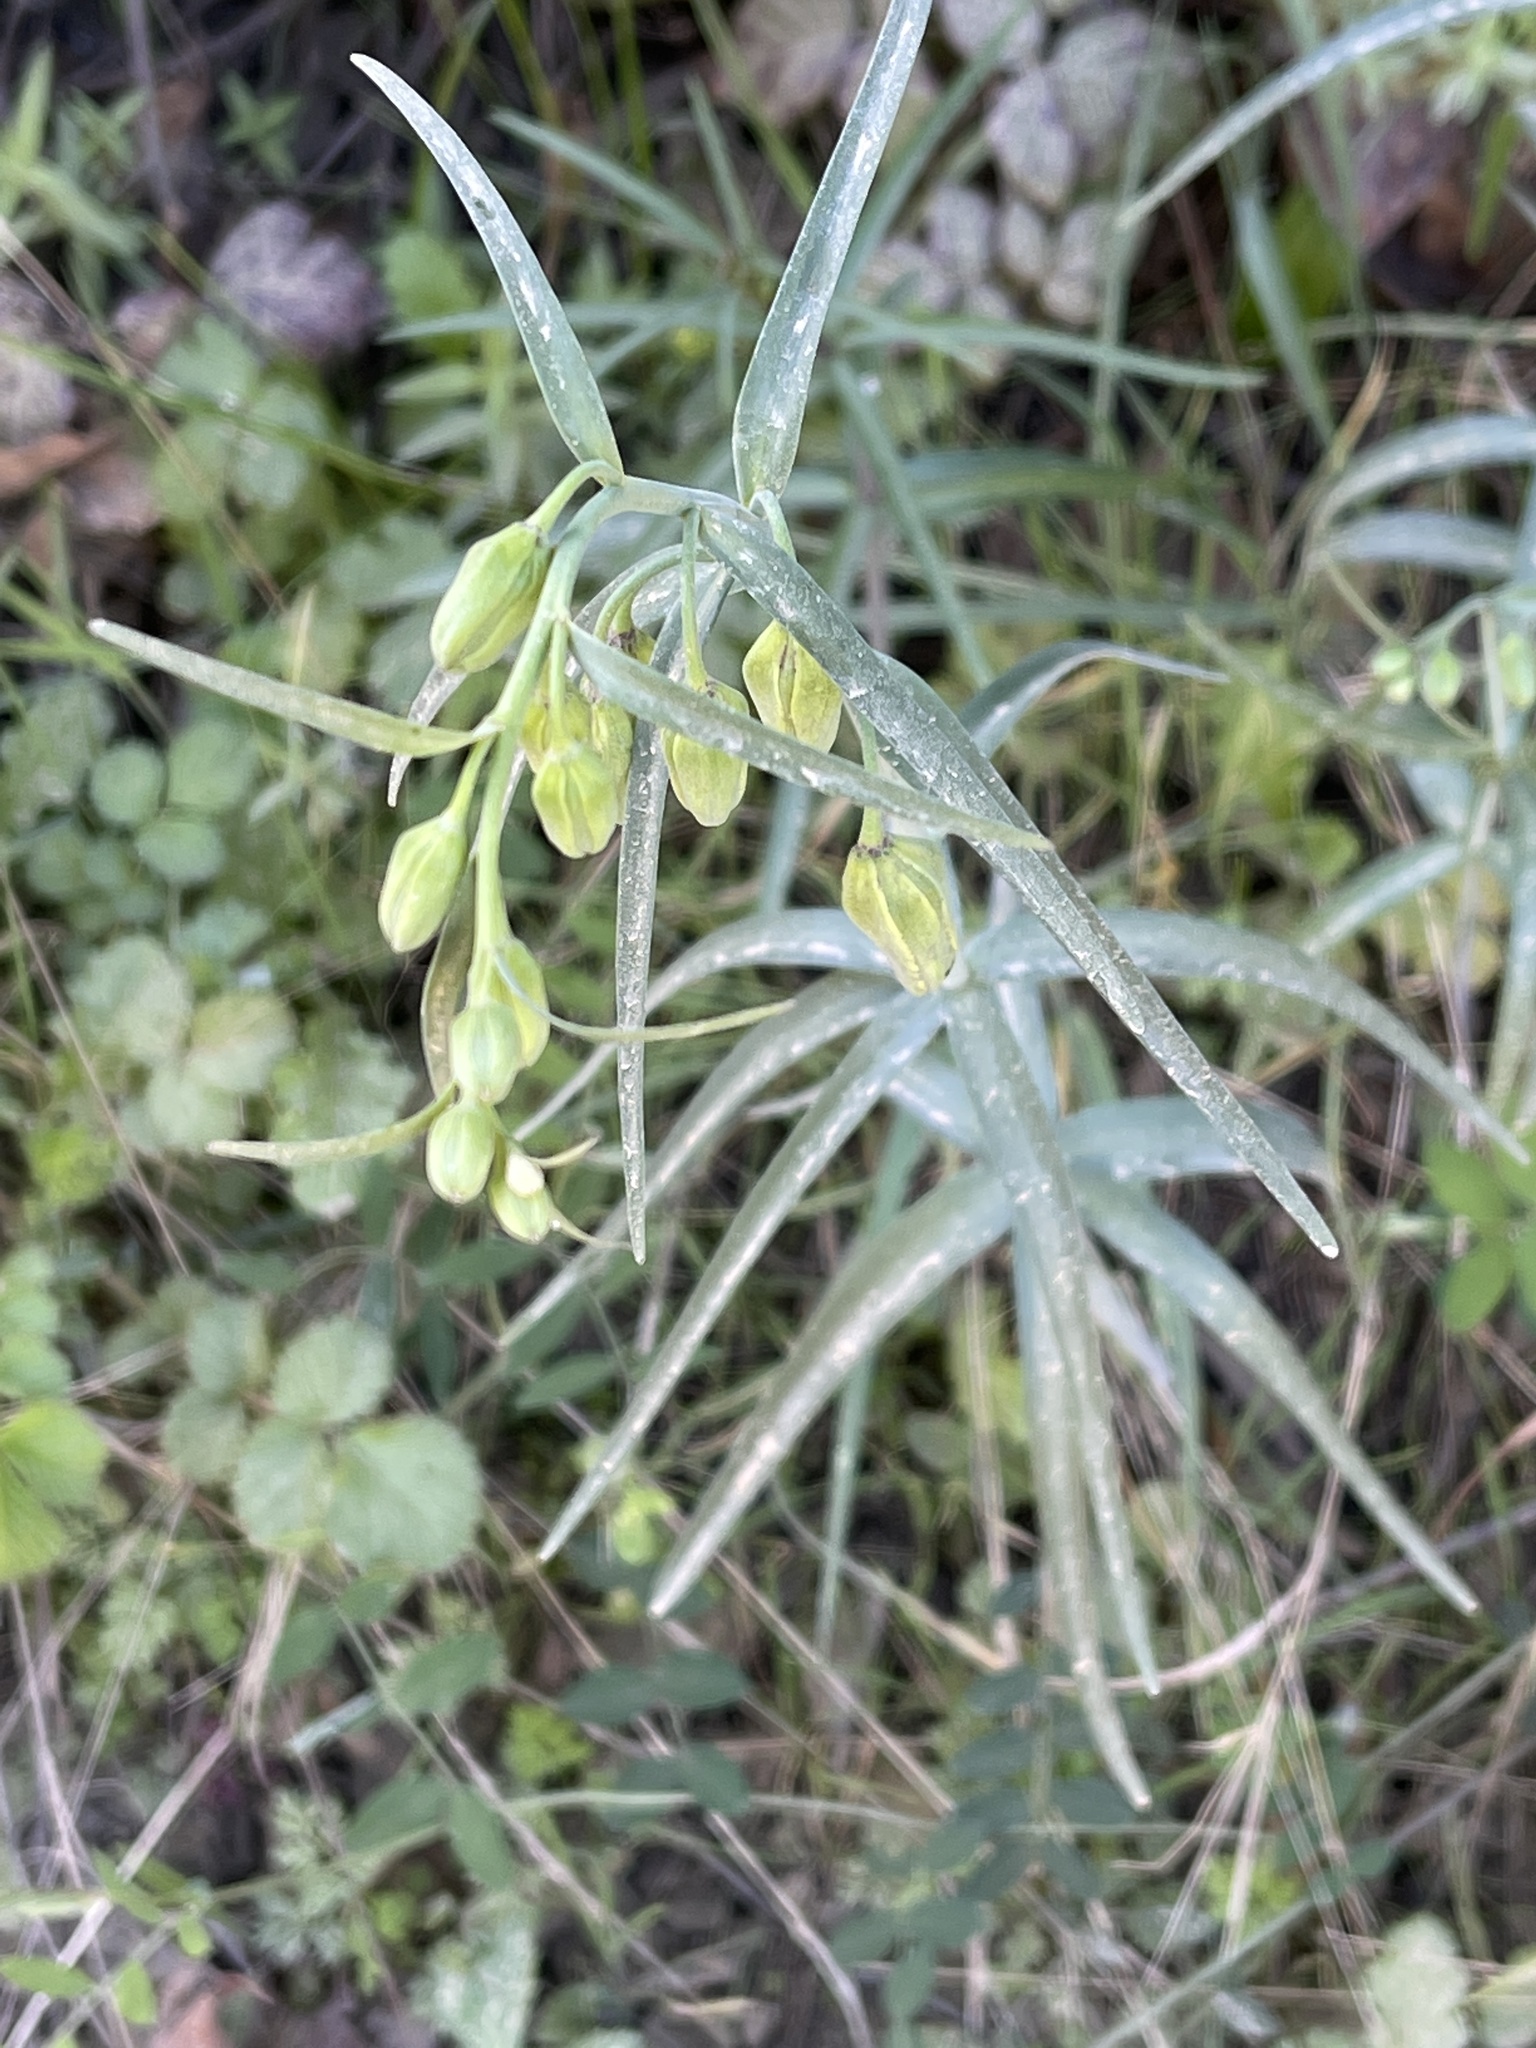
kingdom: Plantae
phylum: Tracheophyta
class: Liliopsida
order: Liliales
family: Liliaceae
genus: Fritillaria
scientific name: Fritillaria ojaiensis
